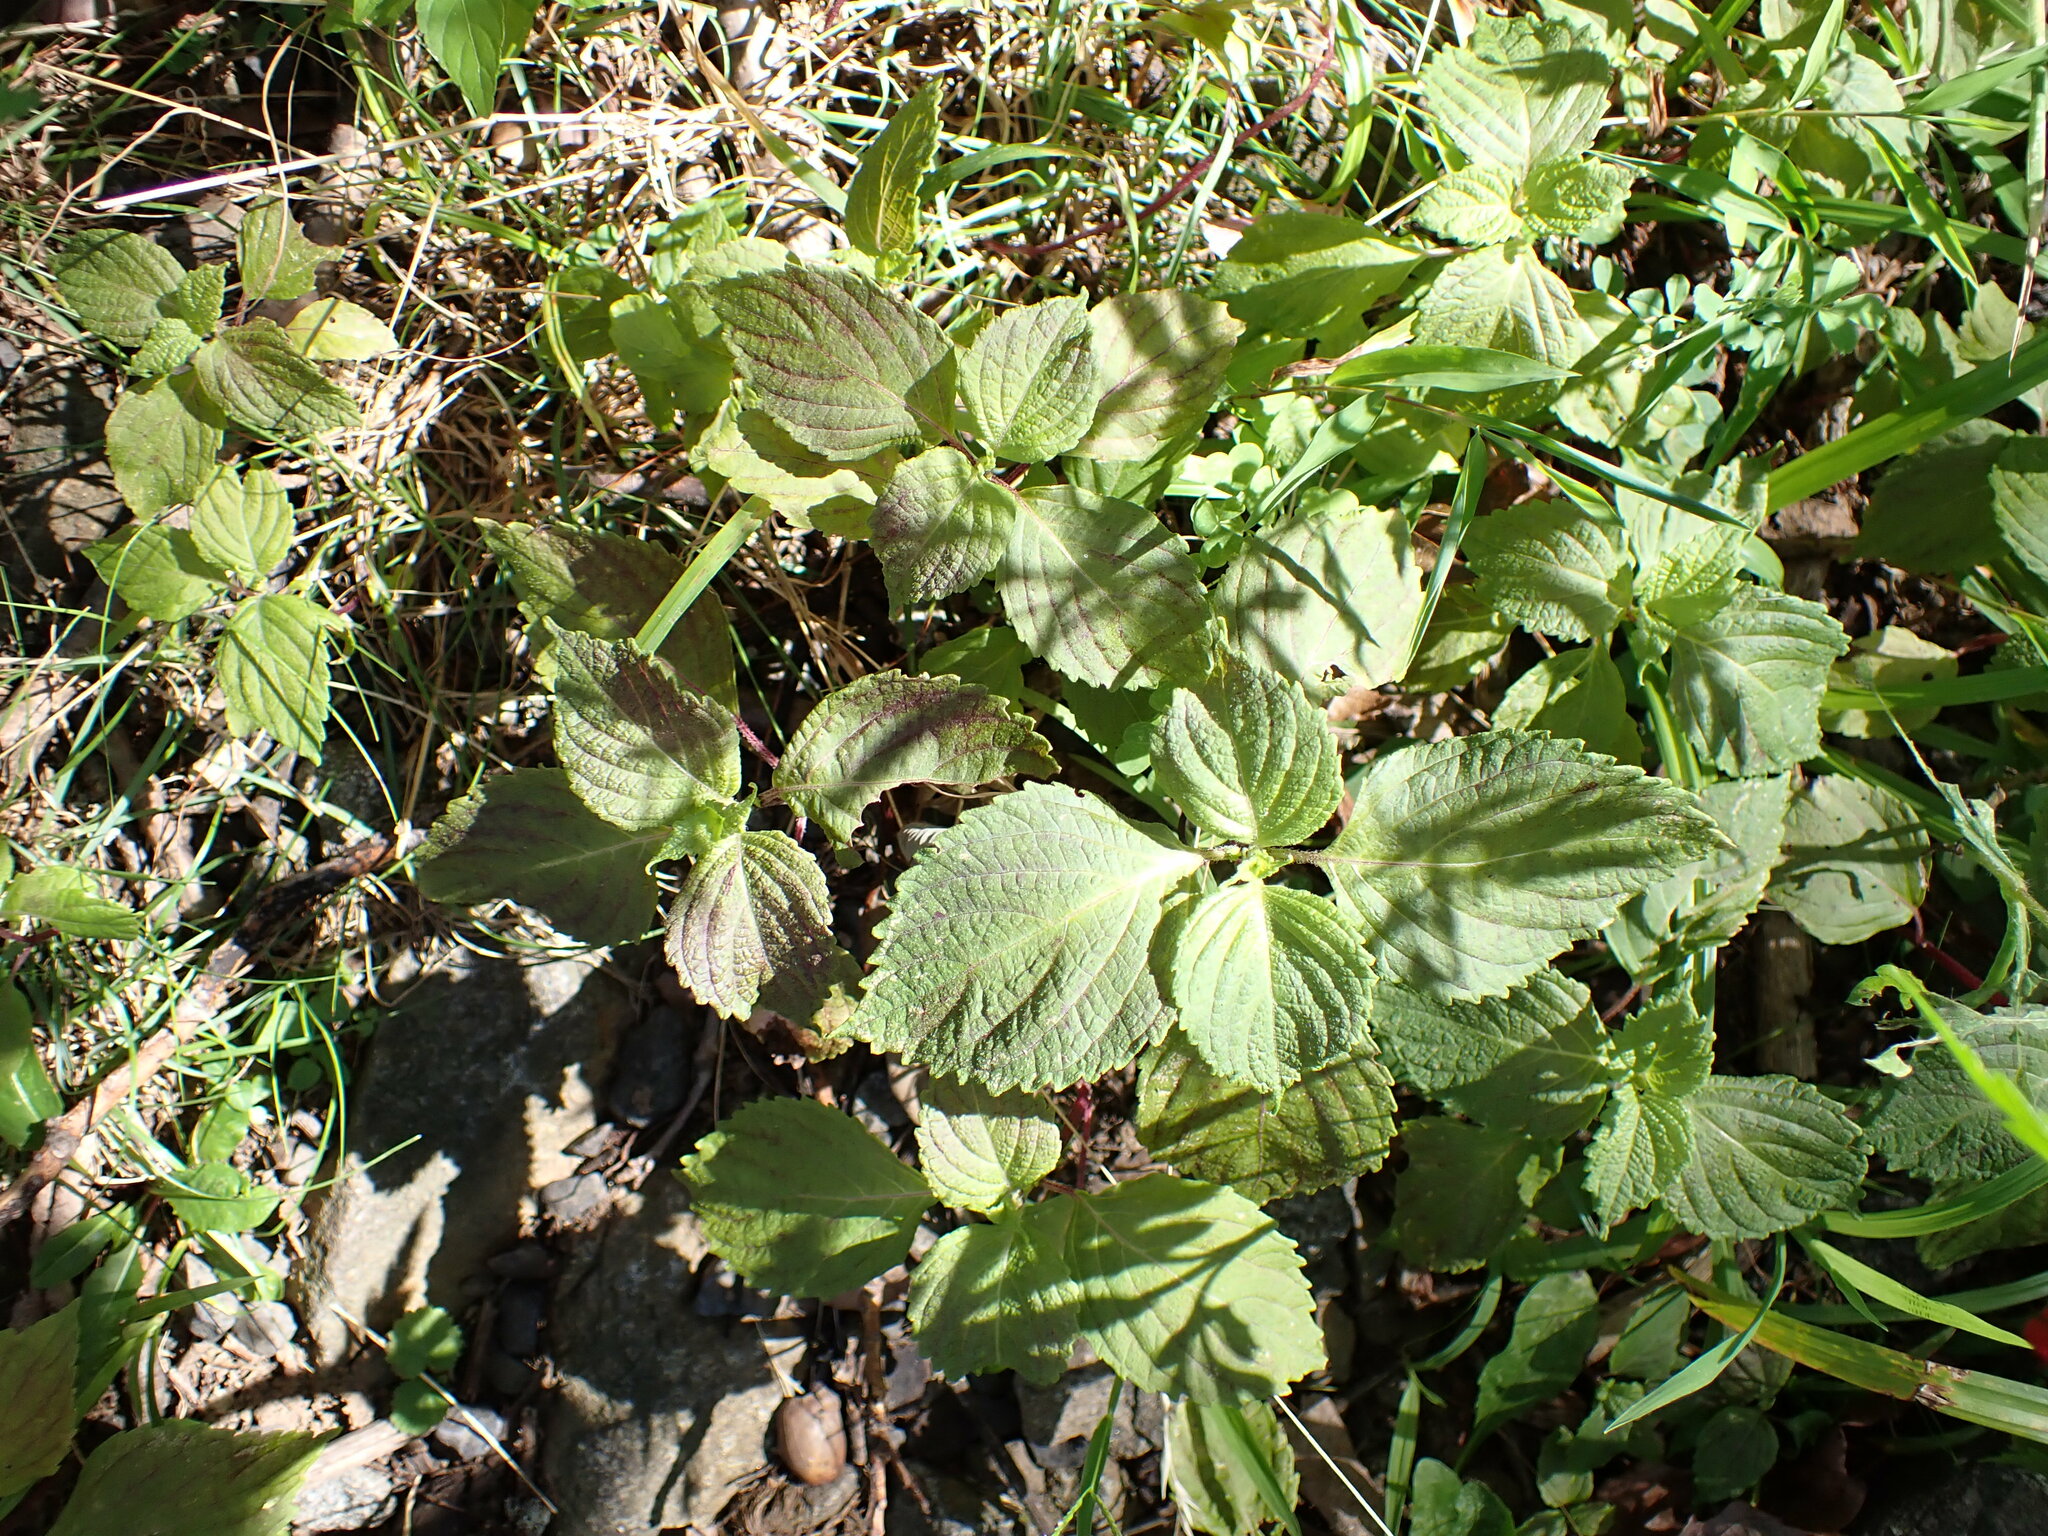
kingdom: Plantae
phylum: Tracheophyta
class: Magnoliopsida
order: Lamiales
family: Lamiaceae
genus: Perilla
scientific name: Perilla frutescens
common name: Perilla
